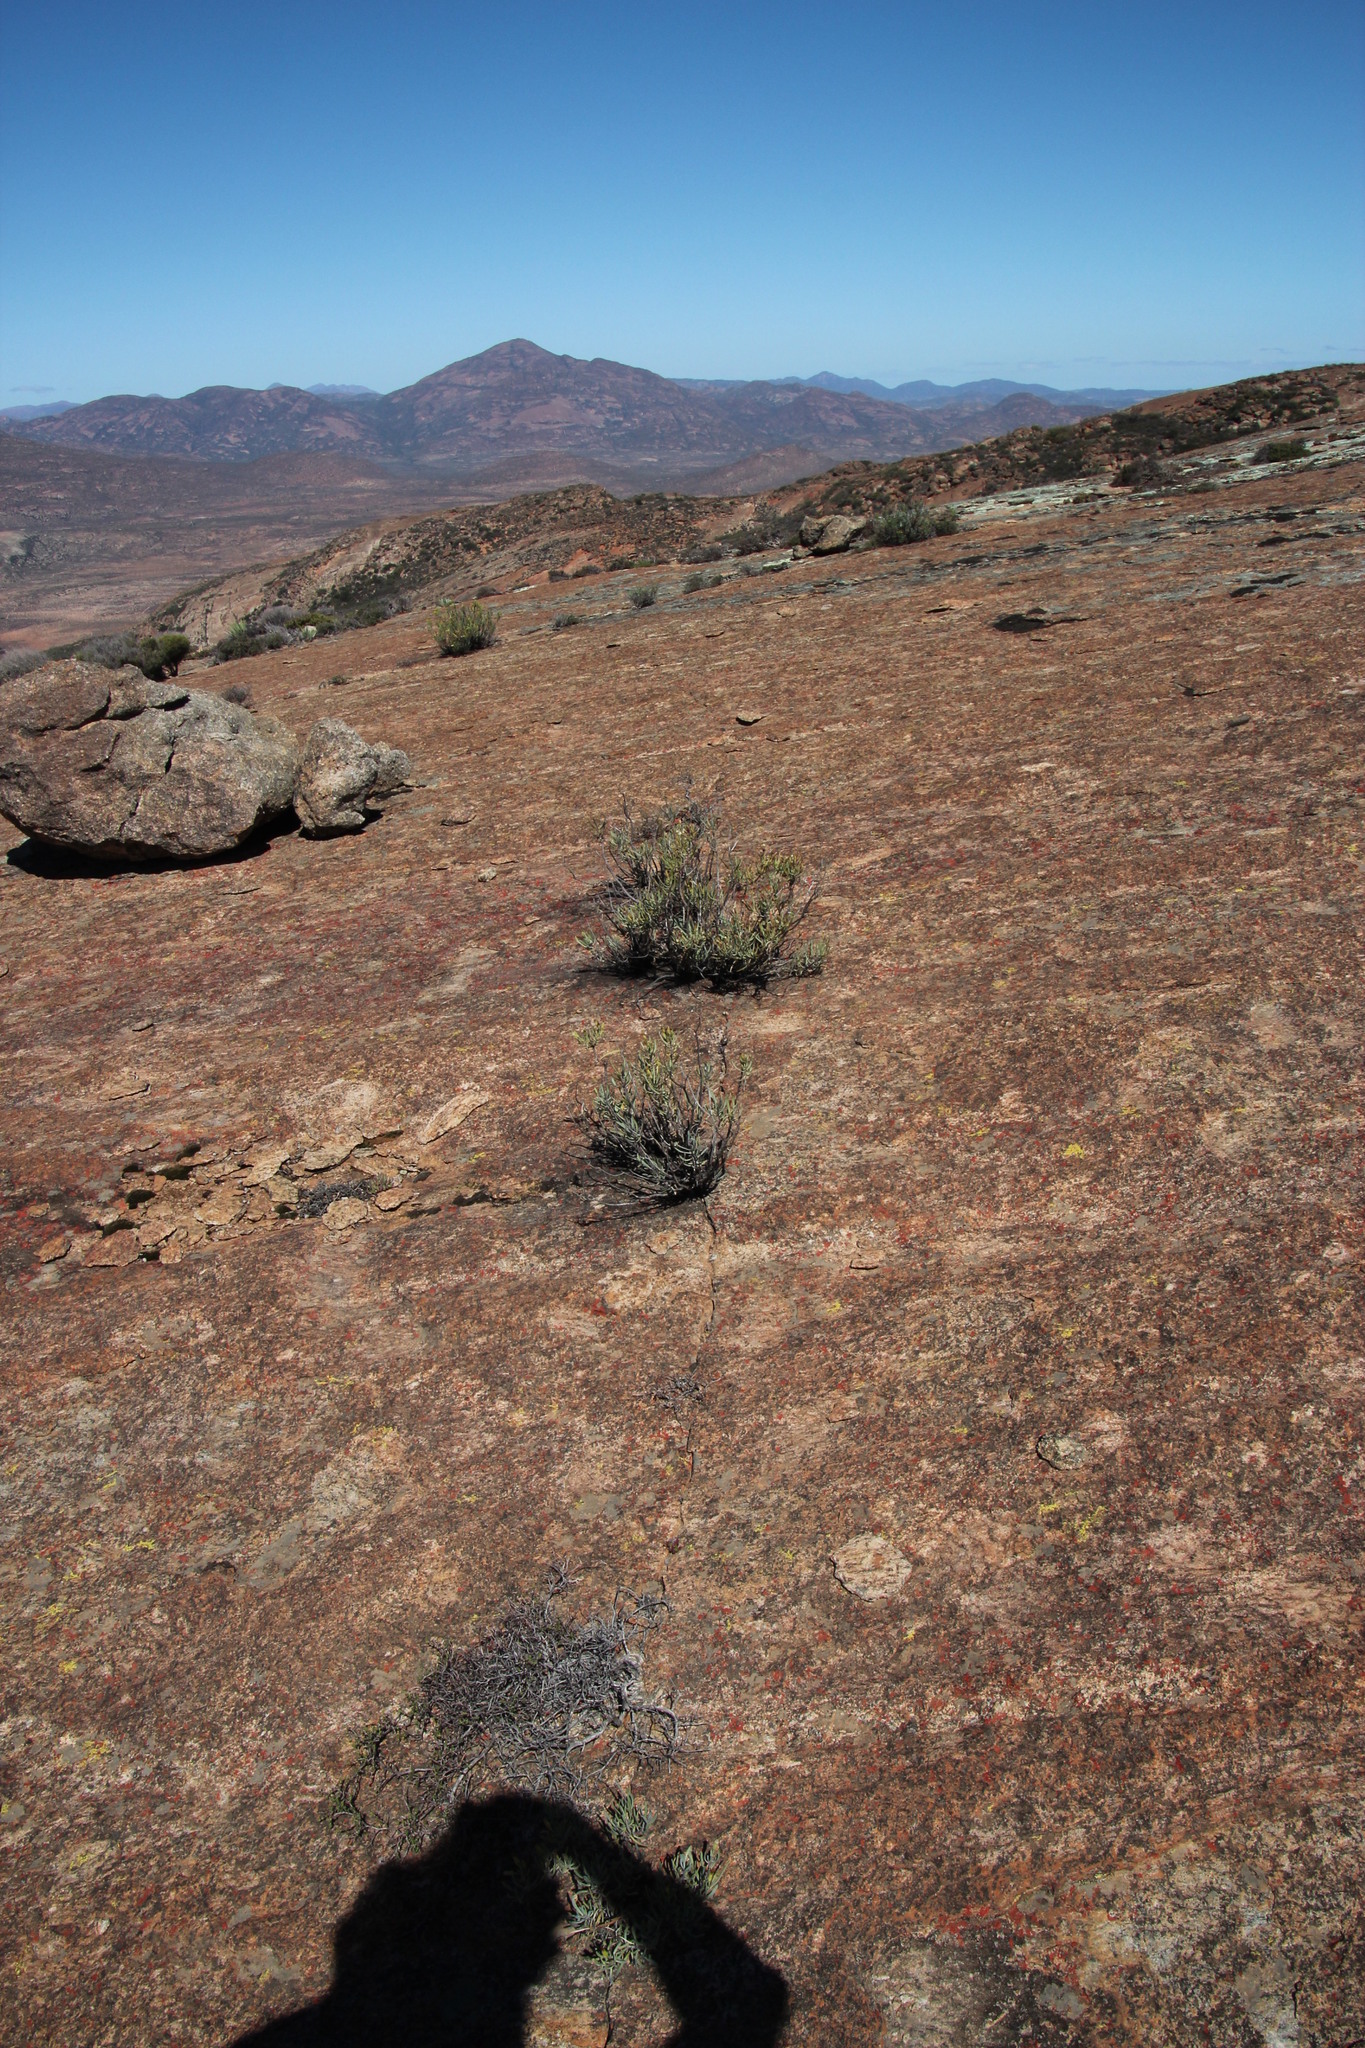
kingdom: Plantae
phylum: Tracheophyta
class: Magnoliopsida
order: Asterales
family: Asteraceae
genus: Lopholaena
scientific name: Lopholaena cneorifolia
